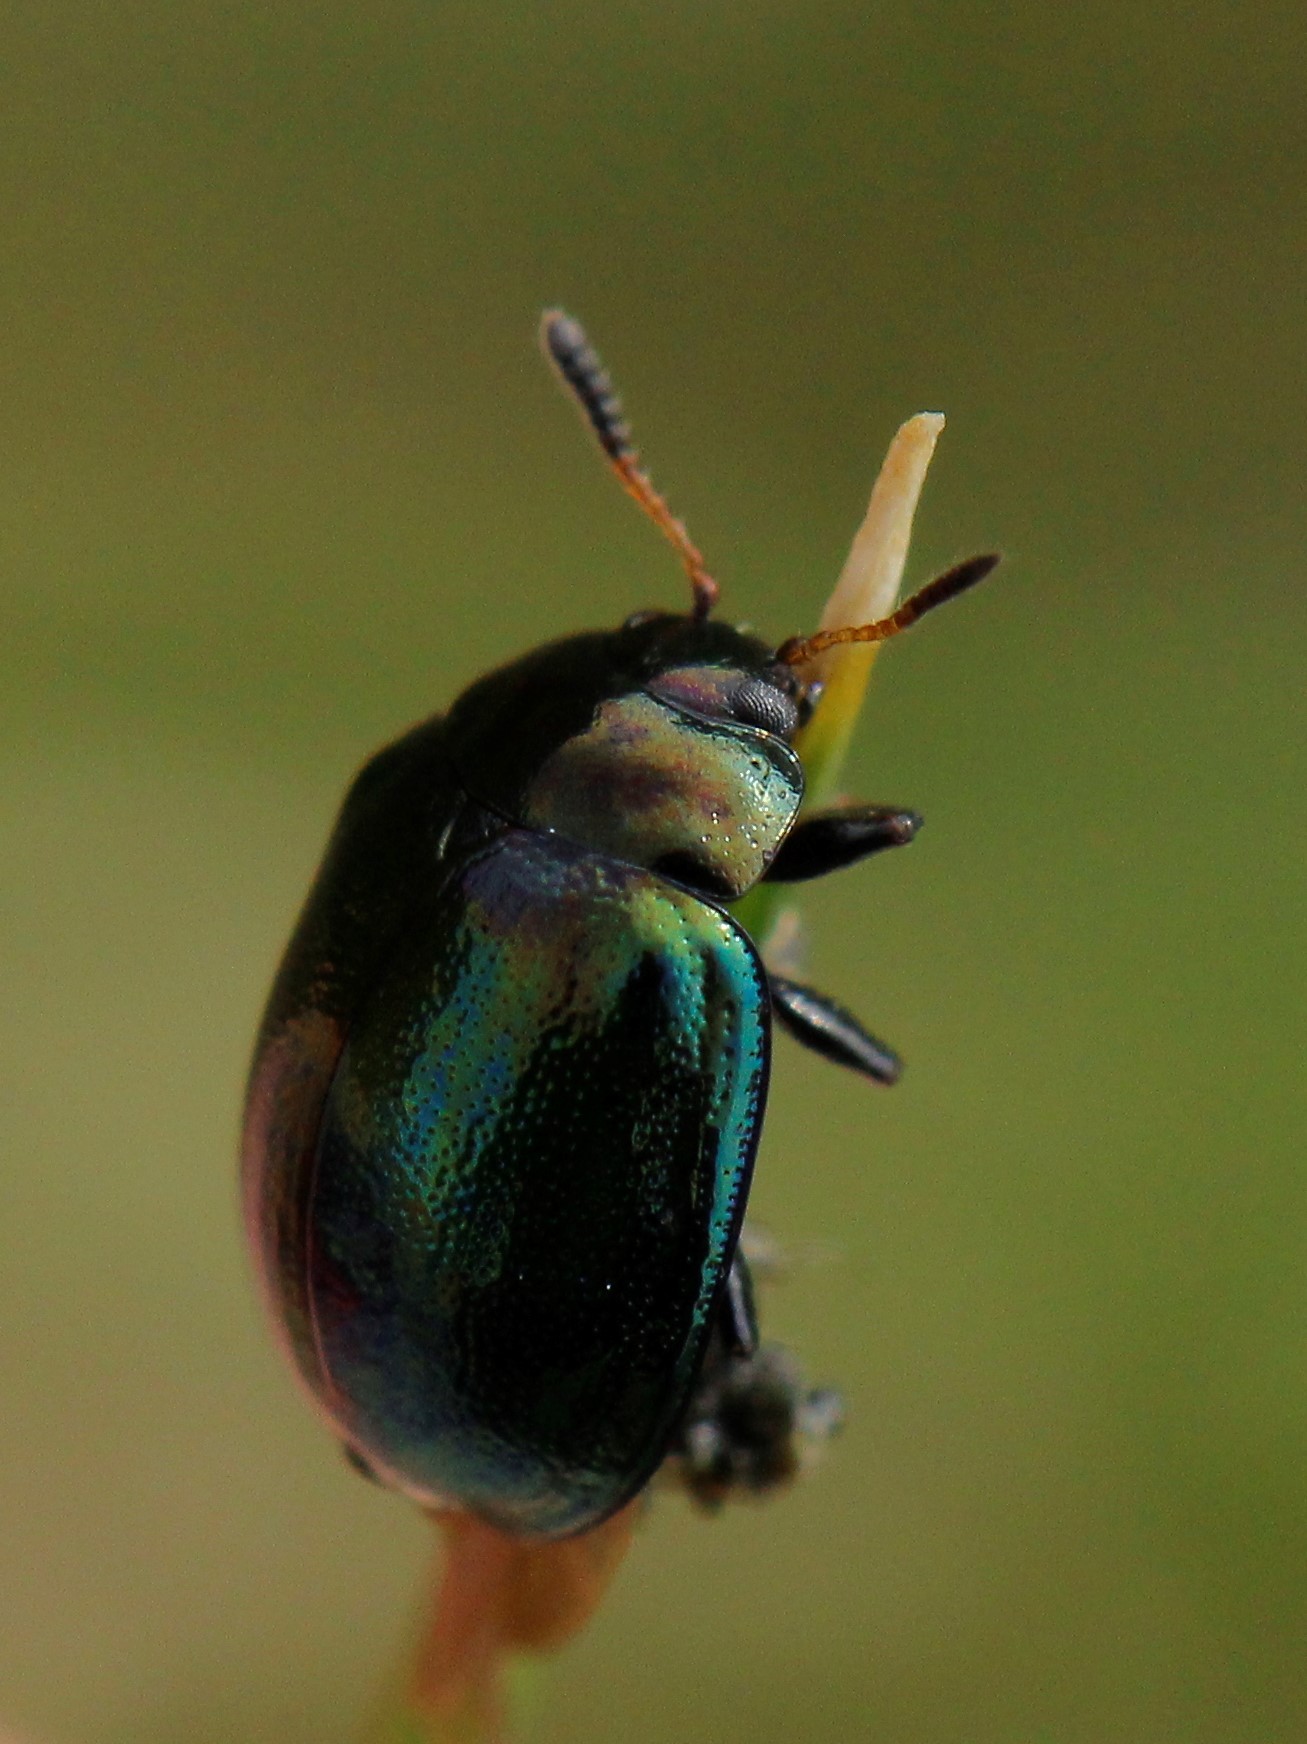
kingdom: Animalia
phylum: Arthropoda
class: Insecta
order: Coleoptera
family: Chrysomelidae
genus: Plagiodera
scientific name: Plagiodera versicolora
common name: Imported willow leaf beetle
